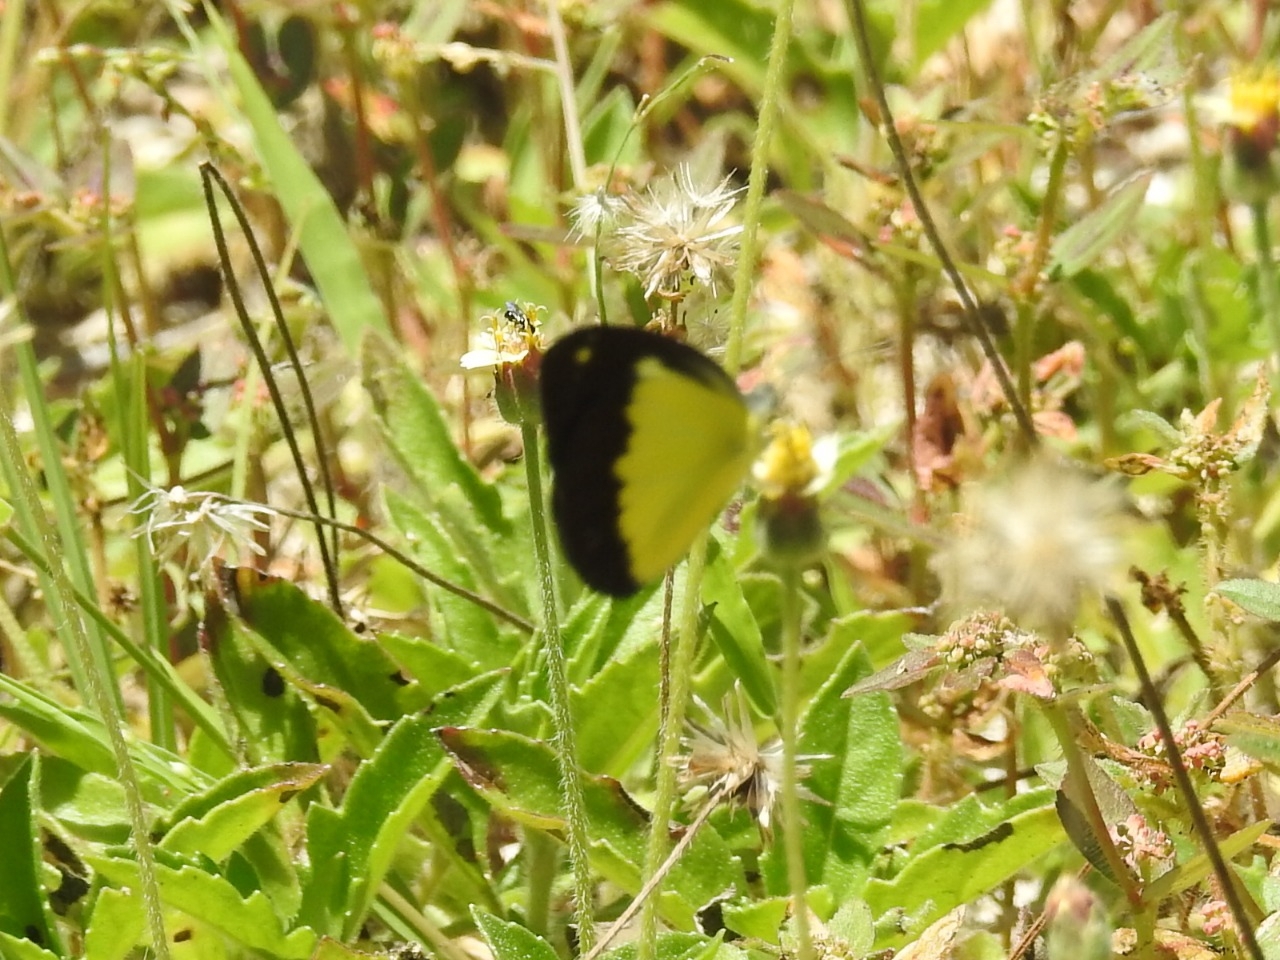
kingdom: Animalia
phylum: Arthropoda
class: Insecta
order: Lepidoptera
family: Pieridae
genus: Cepora
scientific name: Cepora perimale
